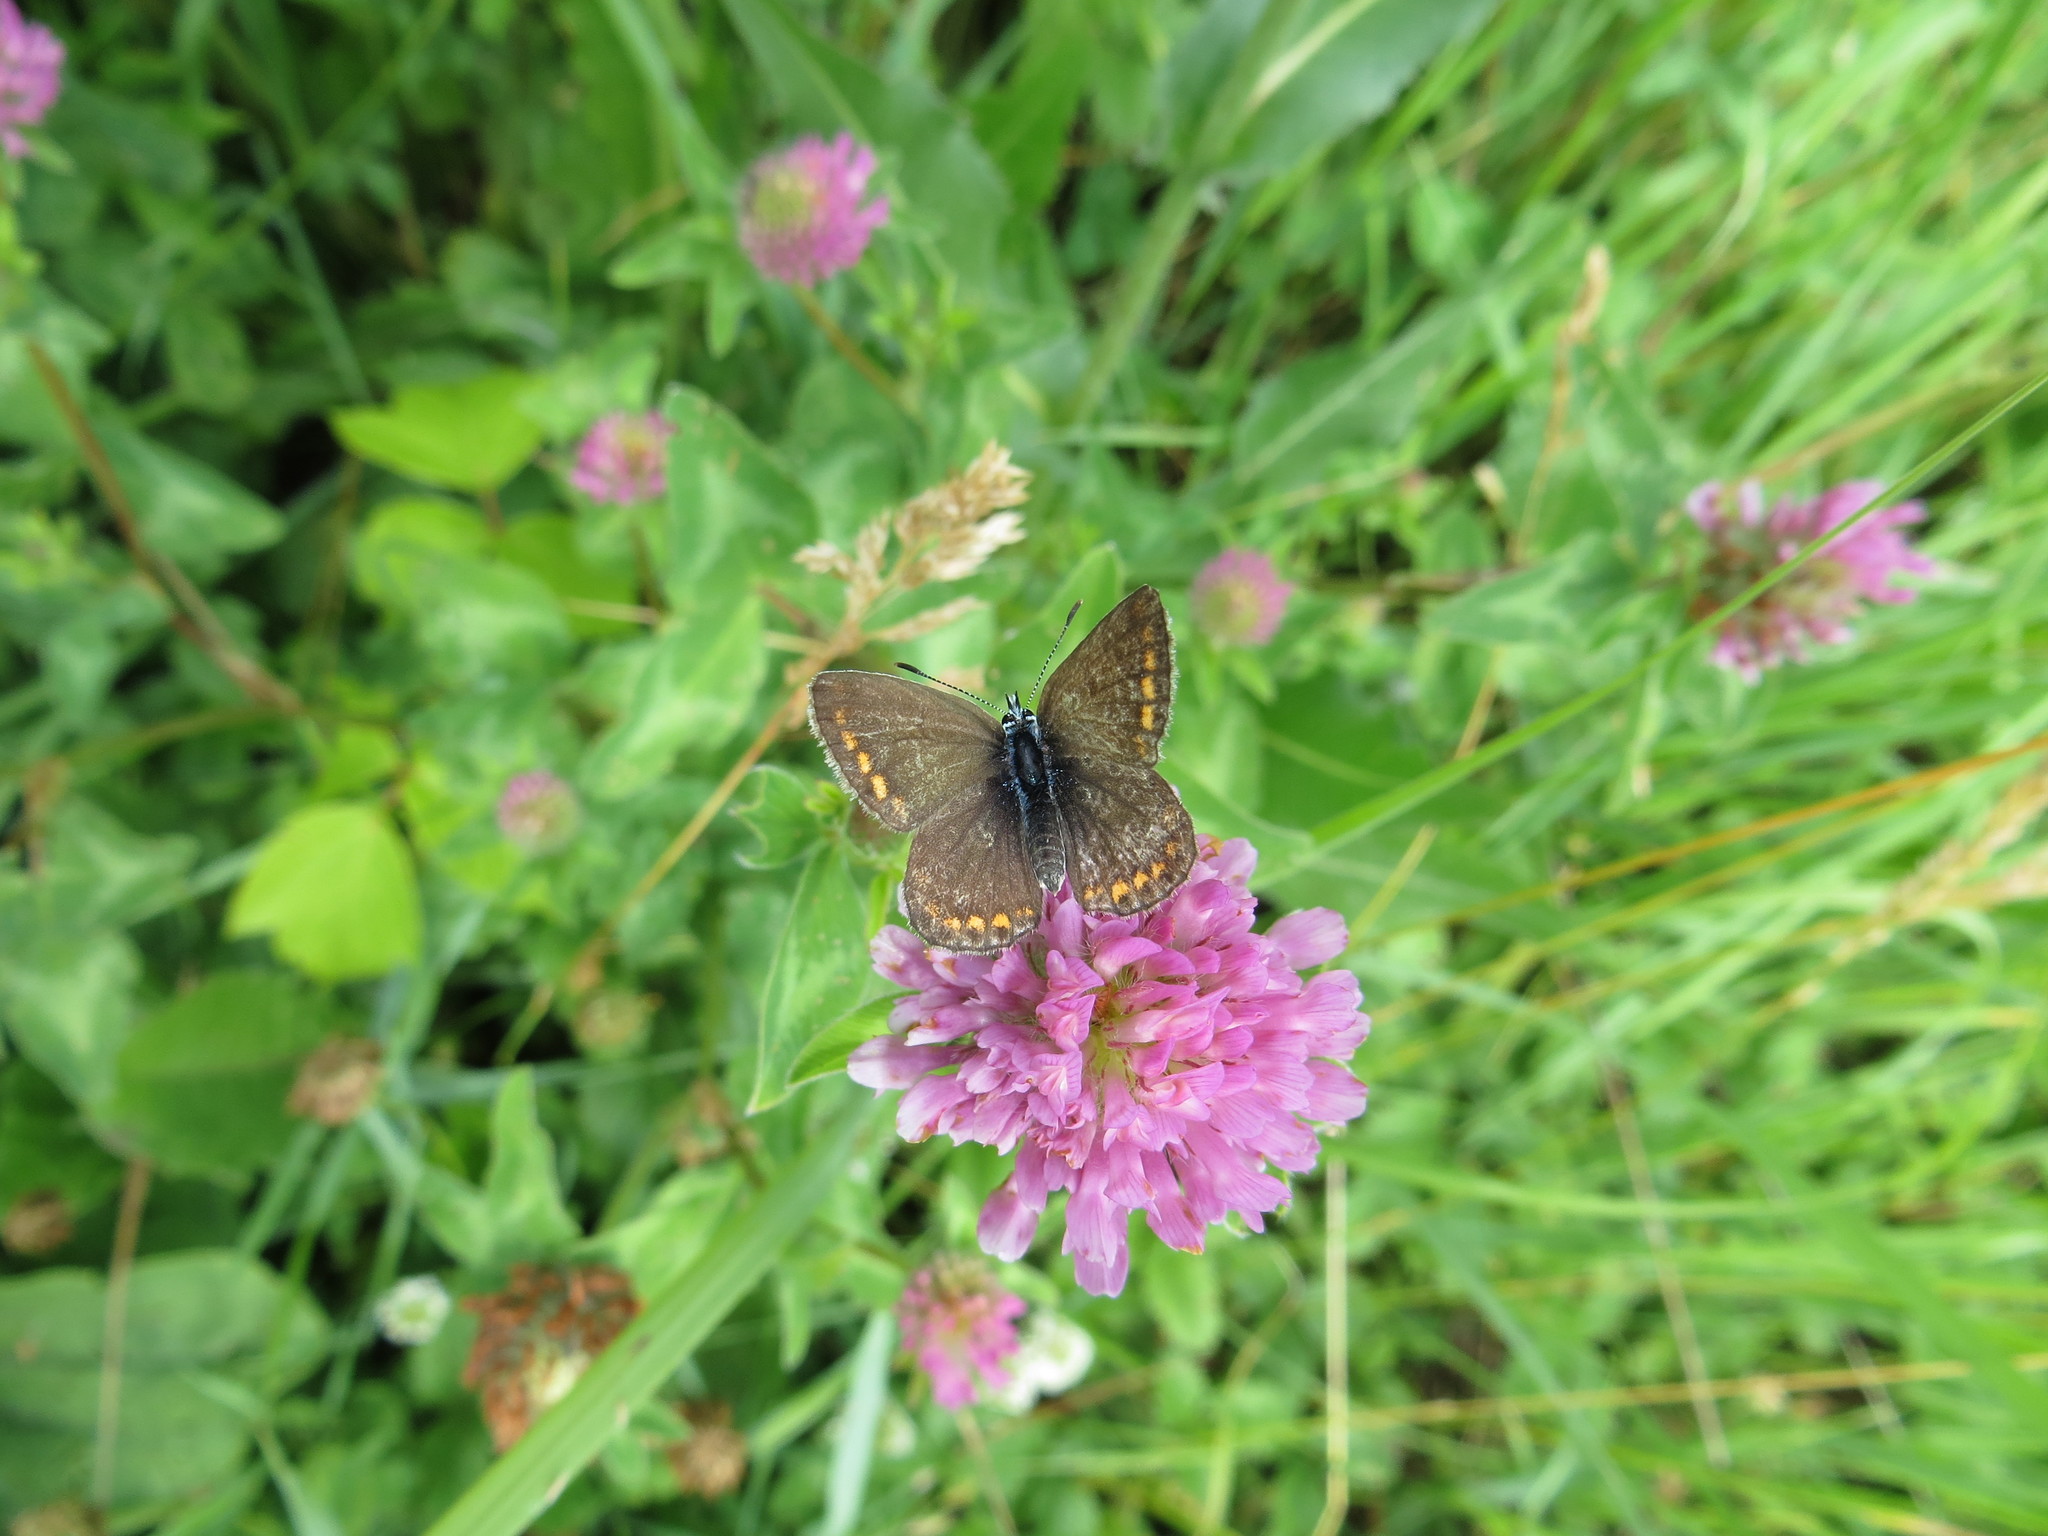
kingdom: Animalia
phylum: Arthropoda
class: Insecta
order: Lepidoptera
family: Lycaenidae
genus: Polyommatus
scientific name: Polyommatus icarus
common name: Common blue
